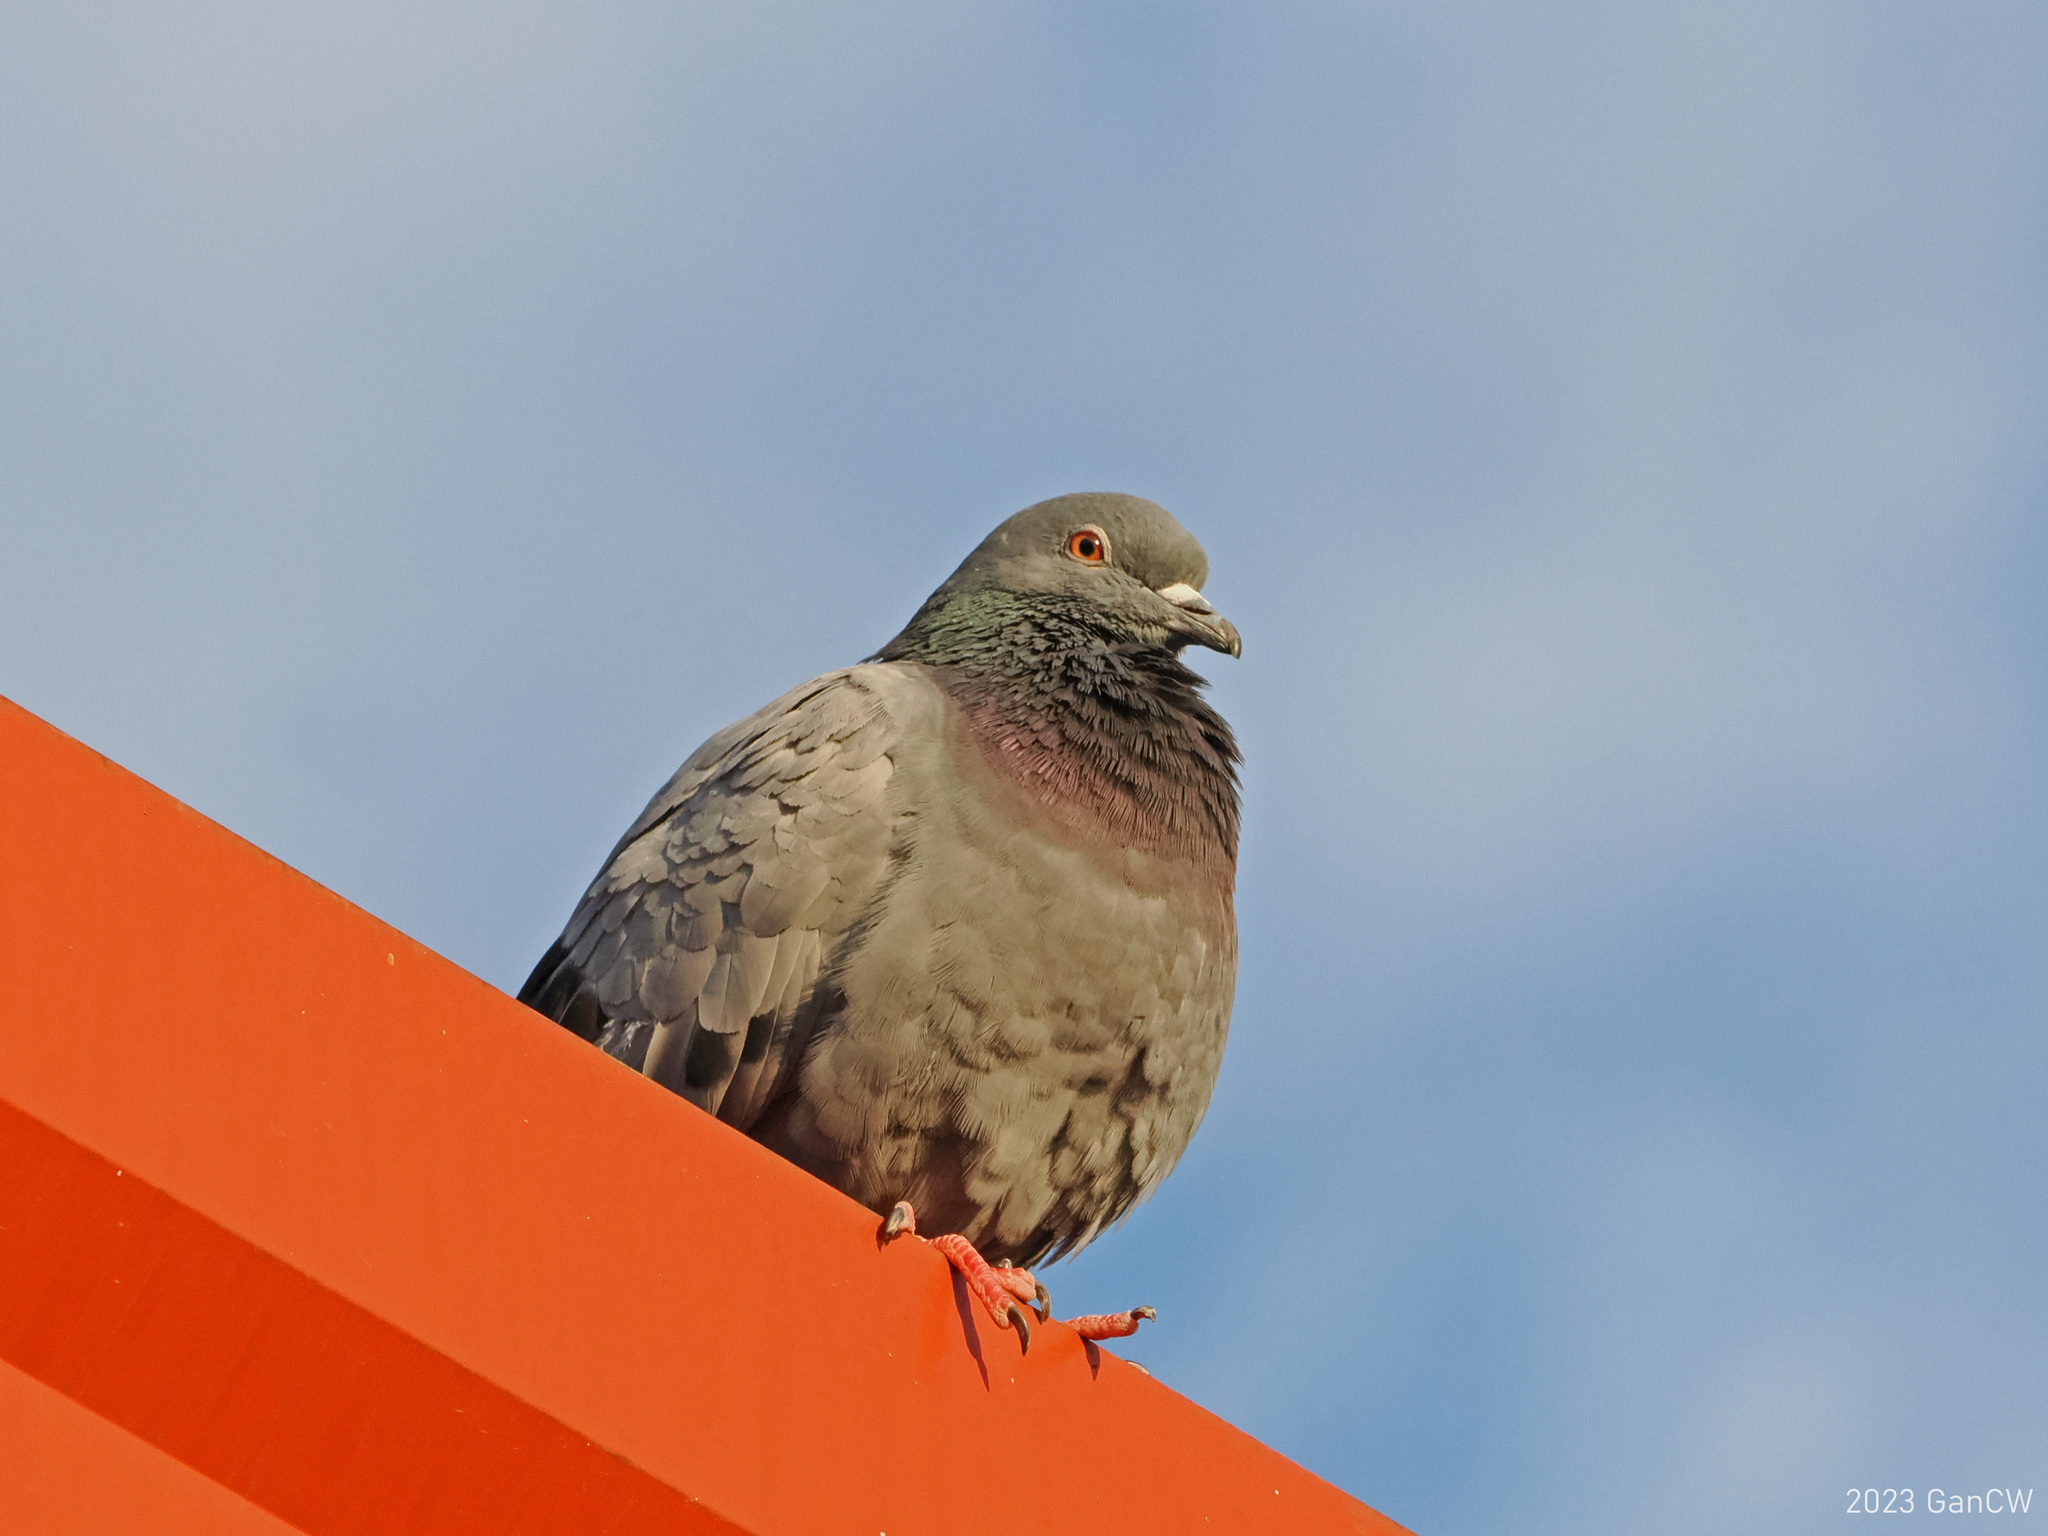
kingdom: Animalia
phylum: Chordata
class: Aves
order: Columbiformes
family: Columbidae
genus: Columba
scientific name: Columba livia
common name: Rock pigeon
